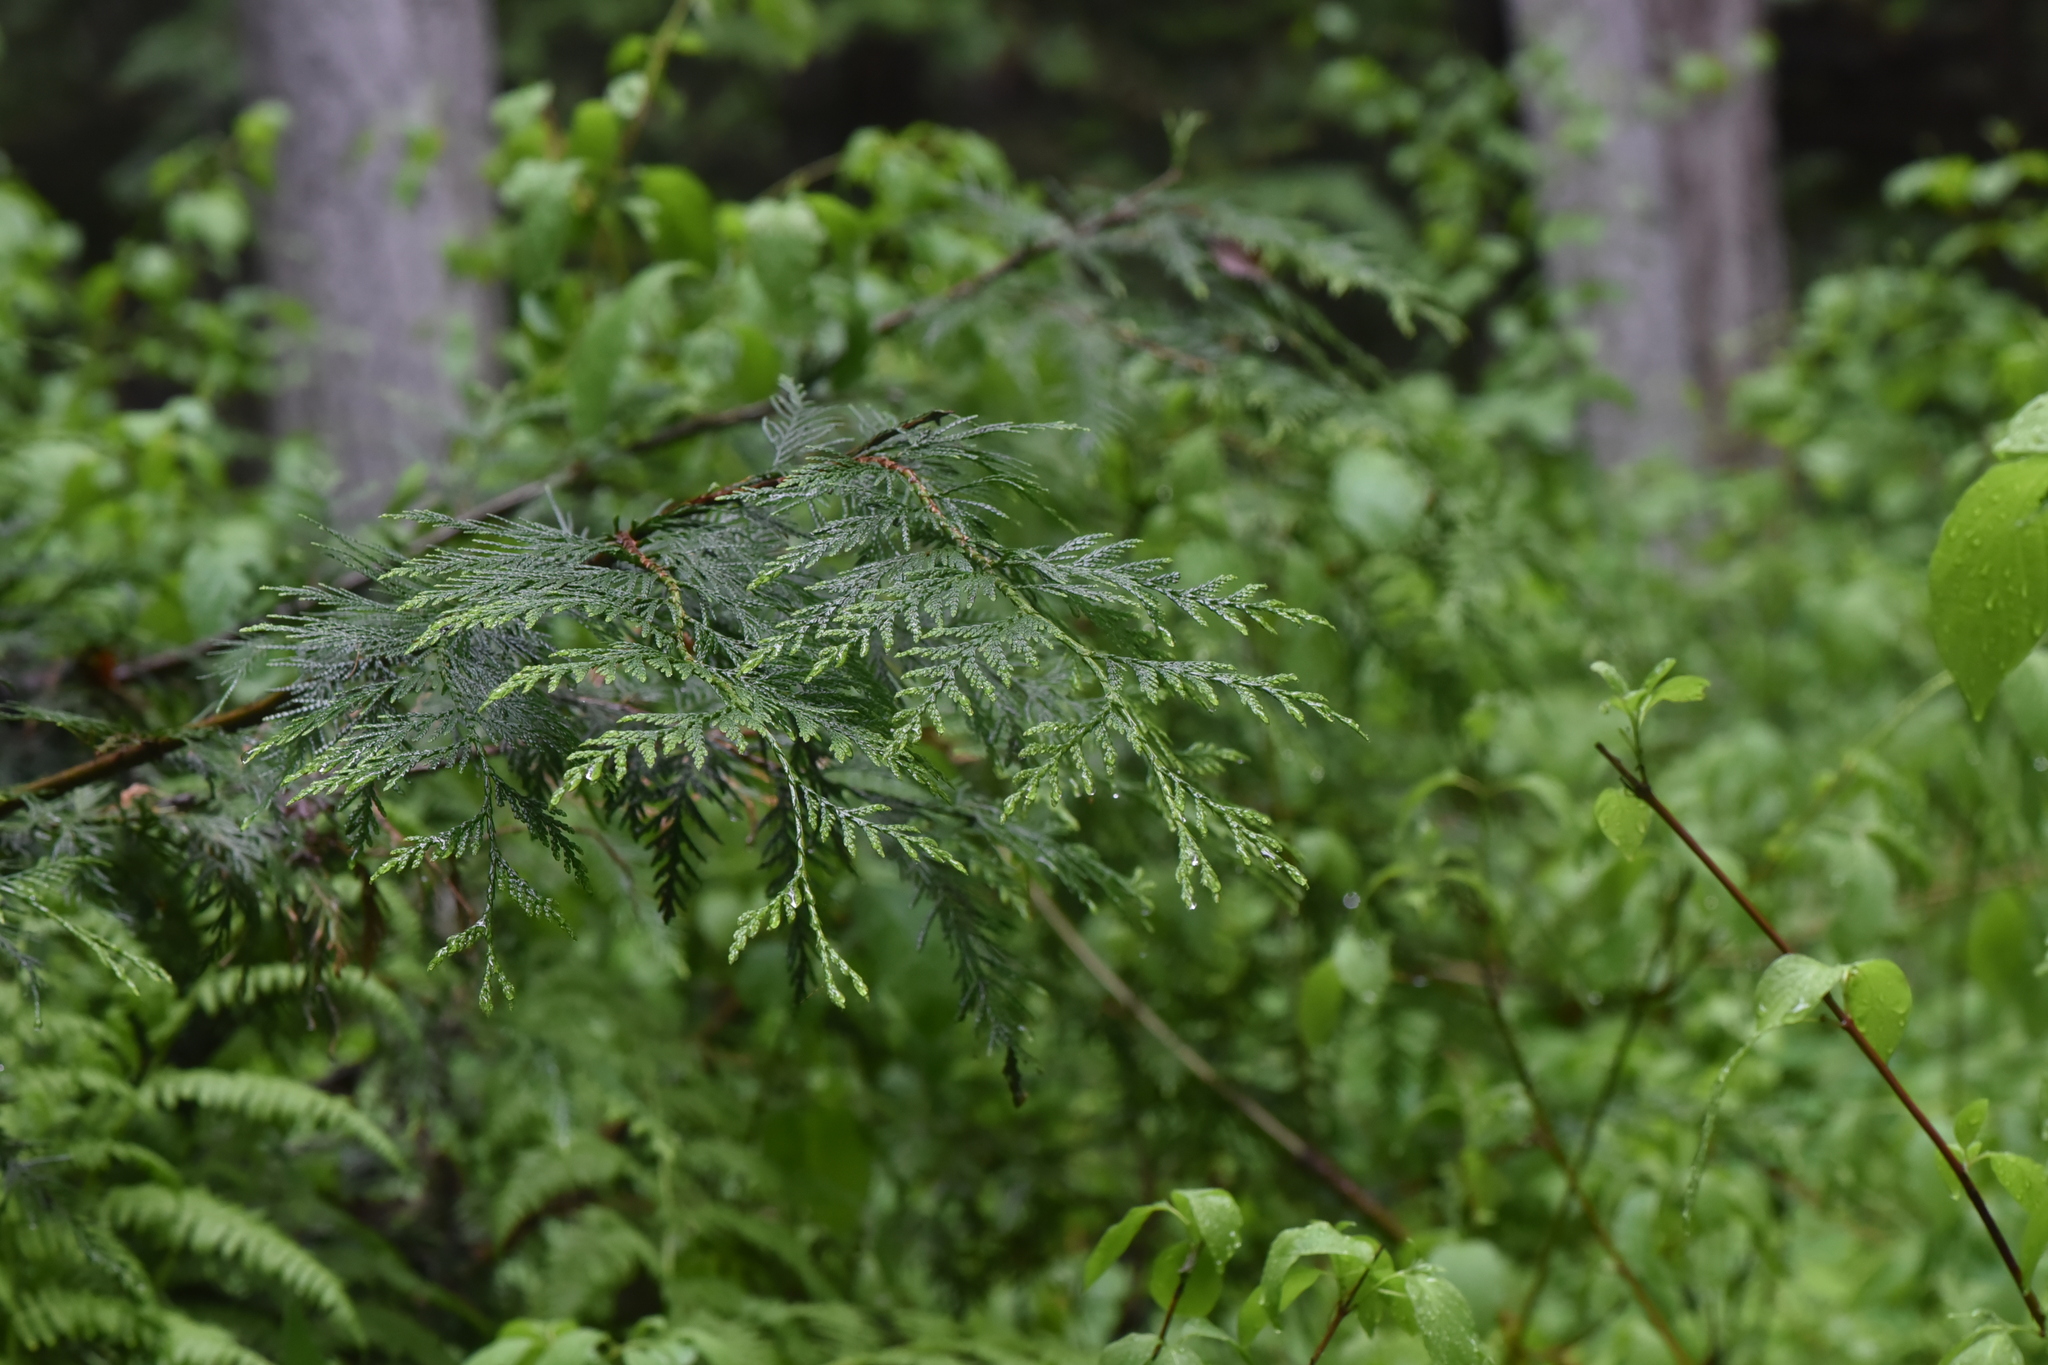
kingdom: Plantae
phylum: Tracheophyta
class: Pinopsida
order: Pinales
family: Cupressaceae
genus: Thuja
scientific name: Thuja plicata
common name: Western red-cedar
